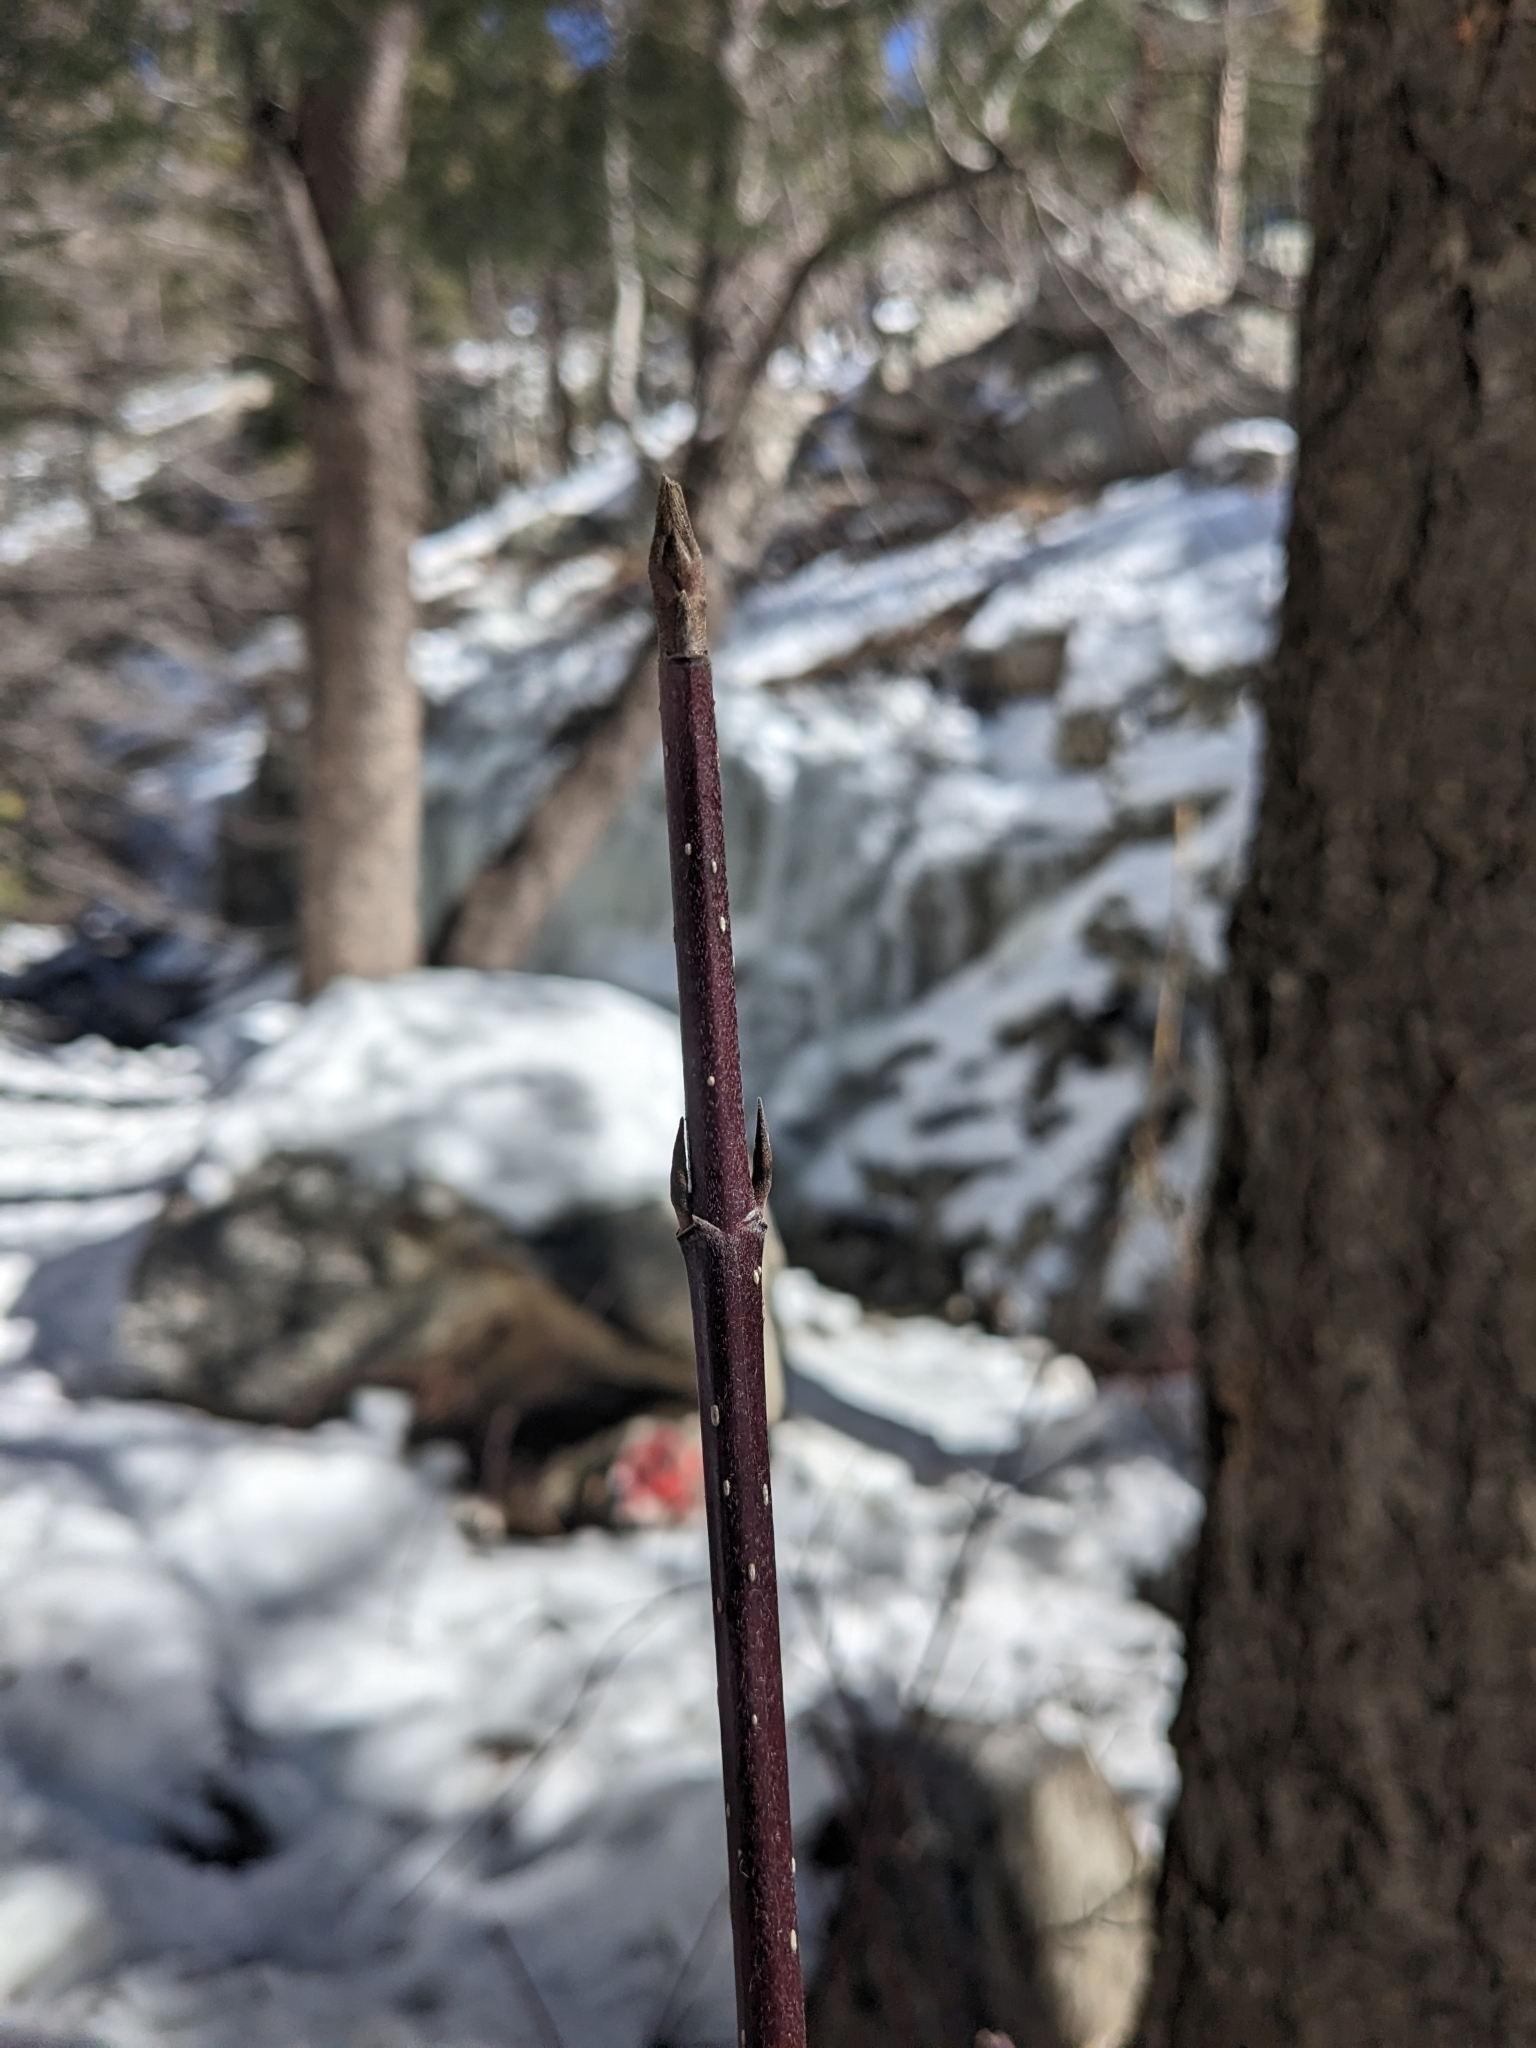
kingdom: Plantae
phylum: Tracheophyta
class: Magnoliopsida
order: Cornales
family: Cornaceae
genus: Cornus
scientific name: Cornus sericea
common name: Red-osier dogwood
